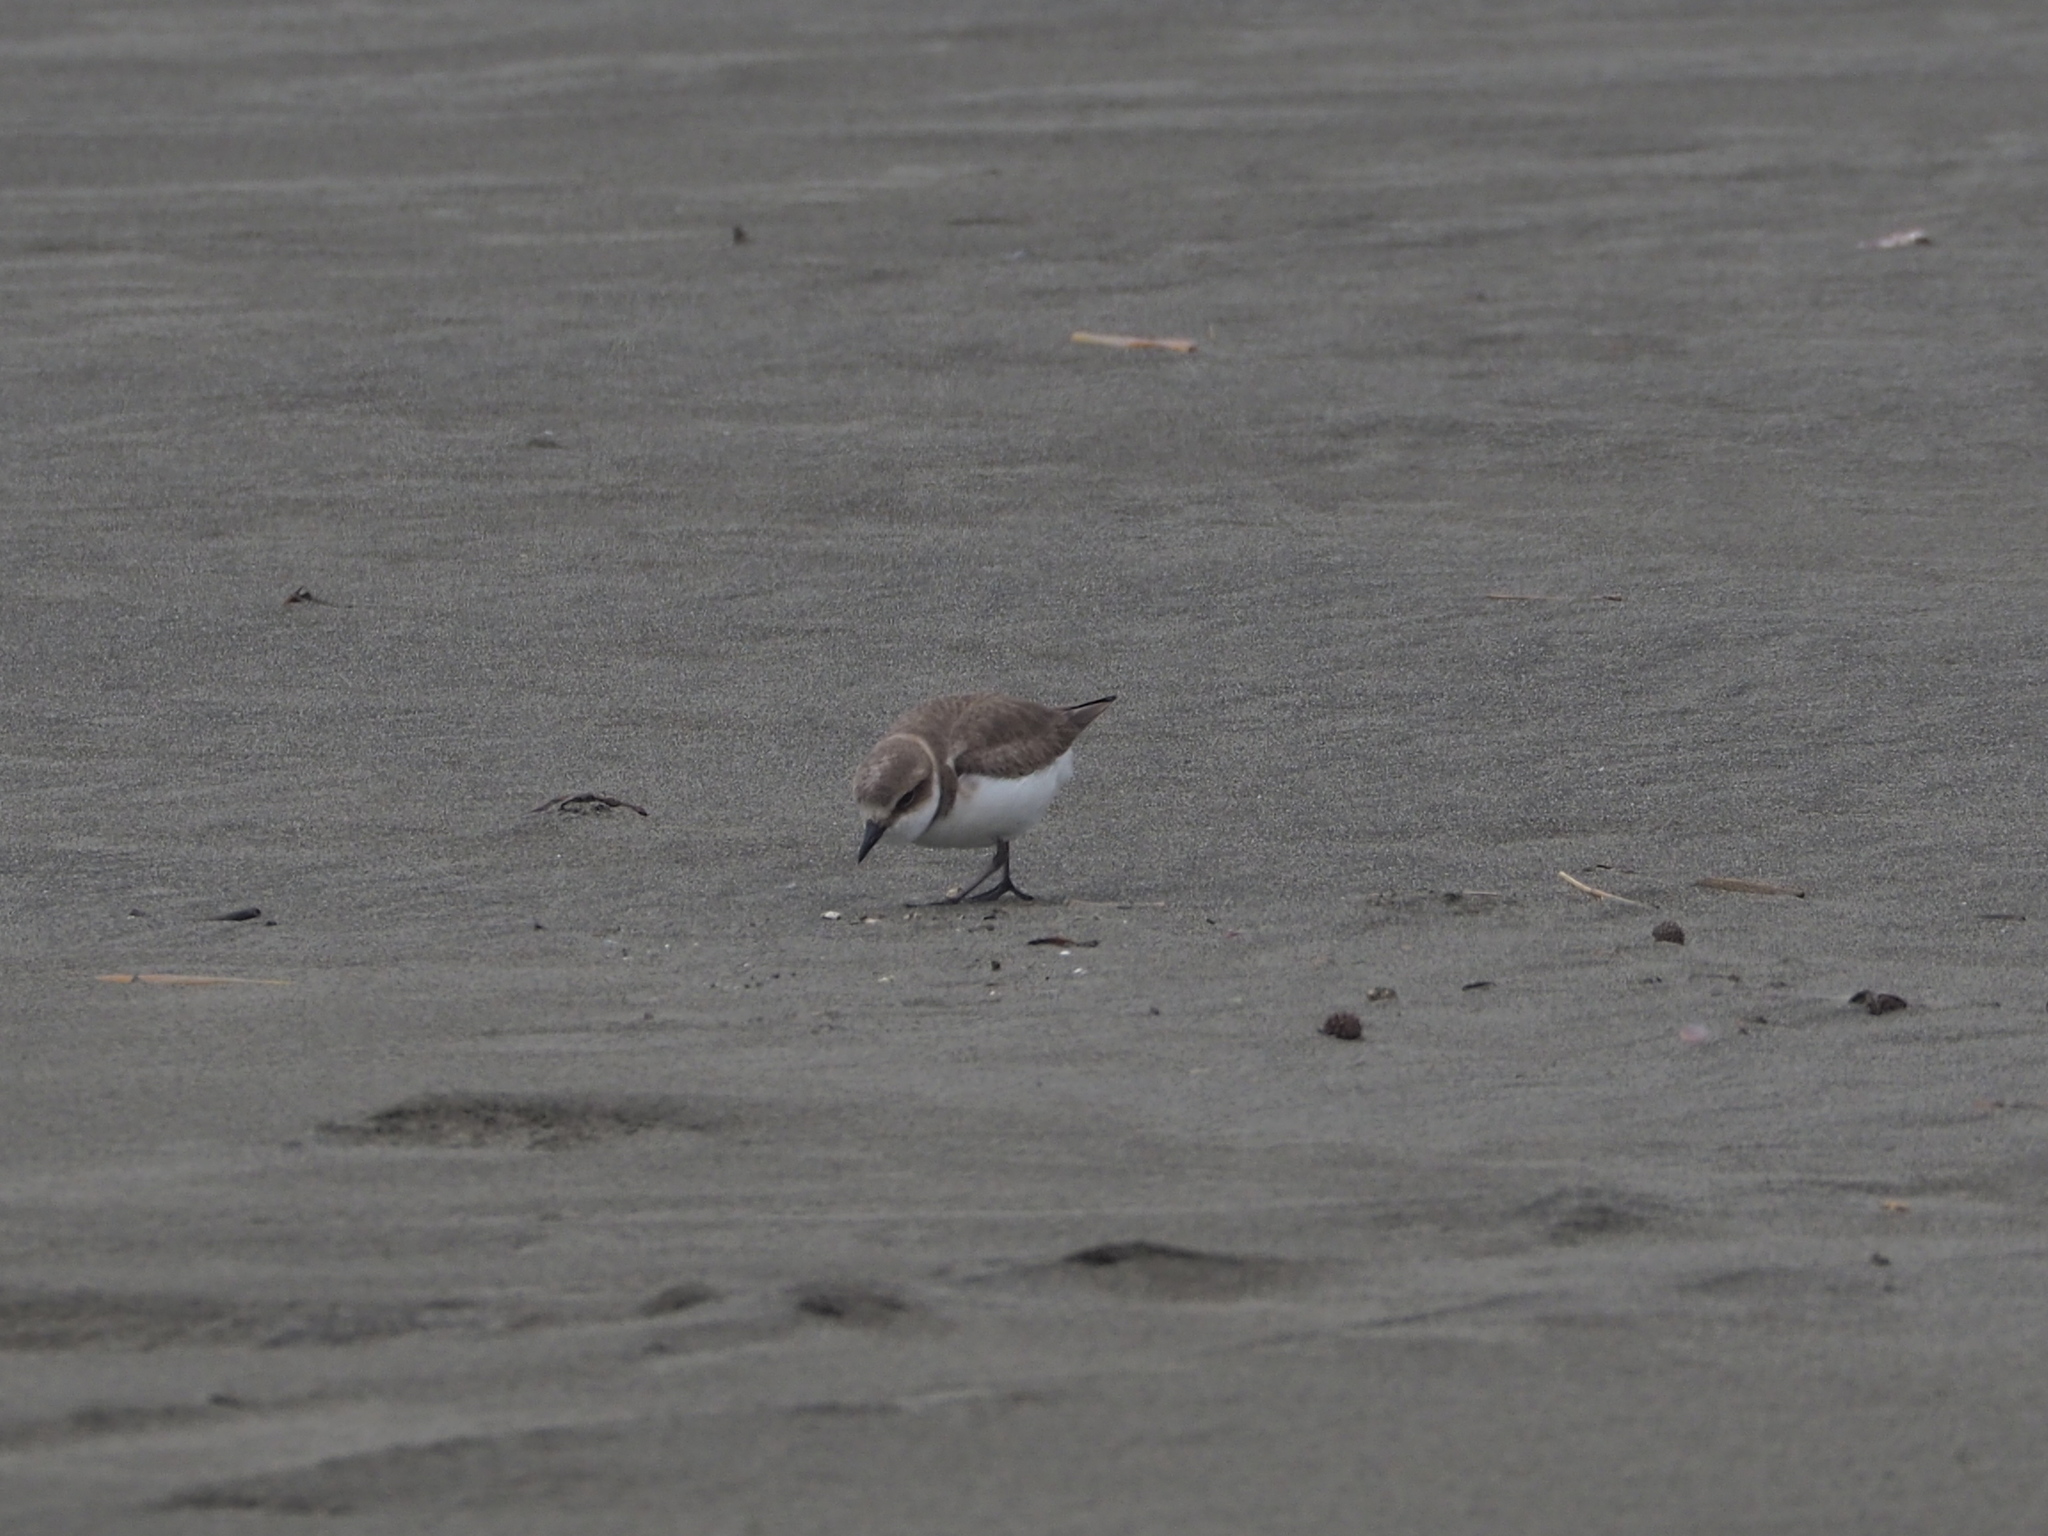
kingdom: Animalia
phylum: Chordata
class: Aves
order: Charadriiformes
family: Charadriidae
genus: Charadrius
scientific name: Charadrius alexandrinus
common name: Kentish plover
